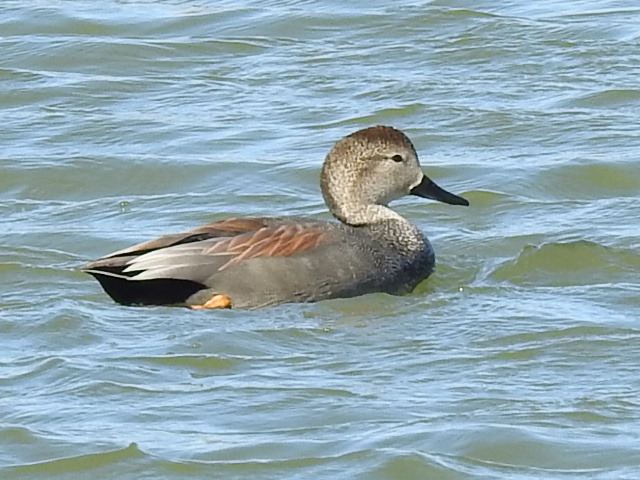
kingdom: Animalia
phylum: Chordata
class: Aves
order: Anseriformes
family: Anatidae
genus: Mareca
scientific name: Mareca strepera
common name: Gadwall
